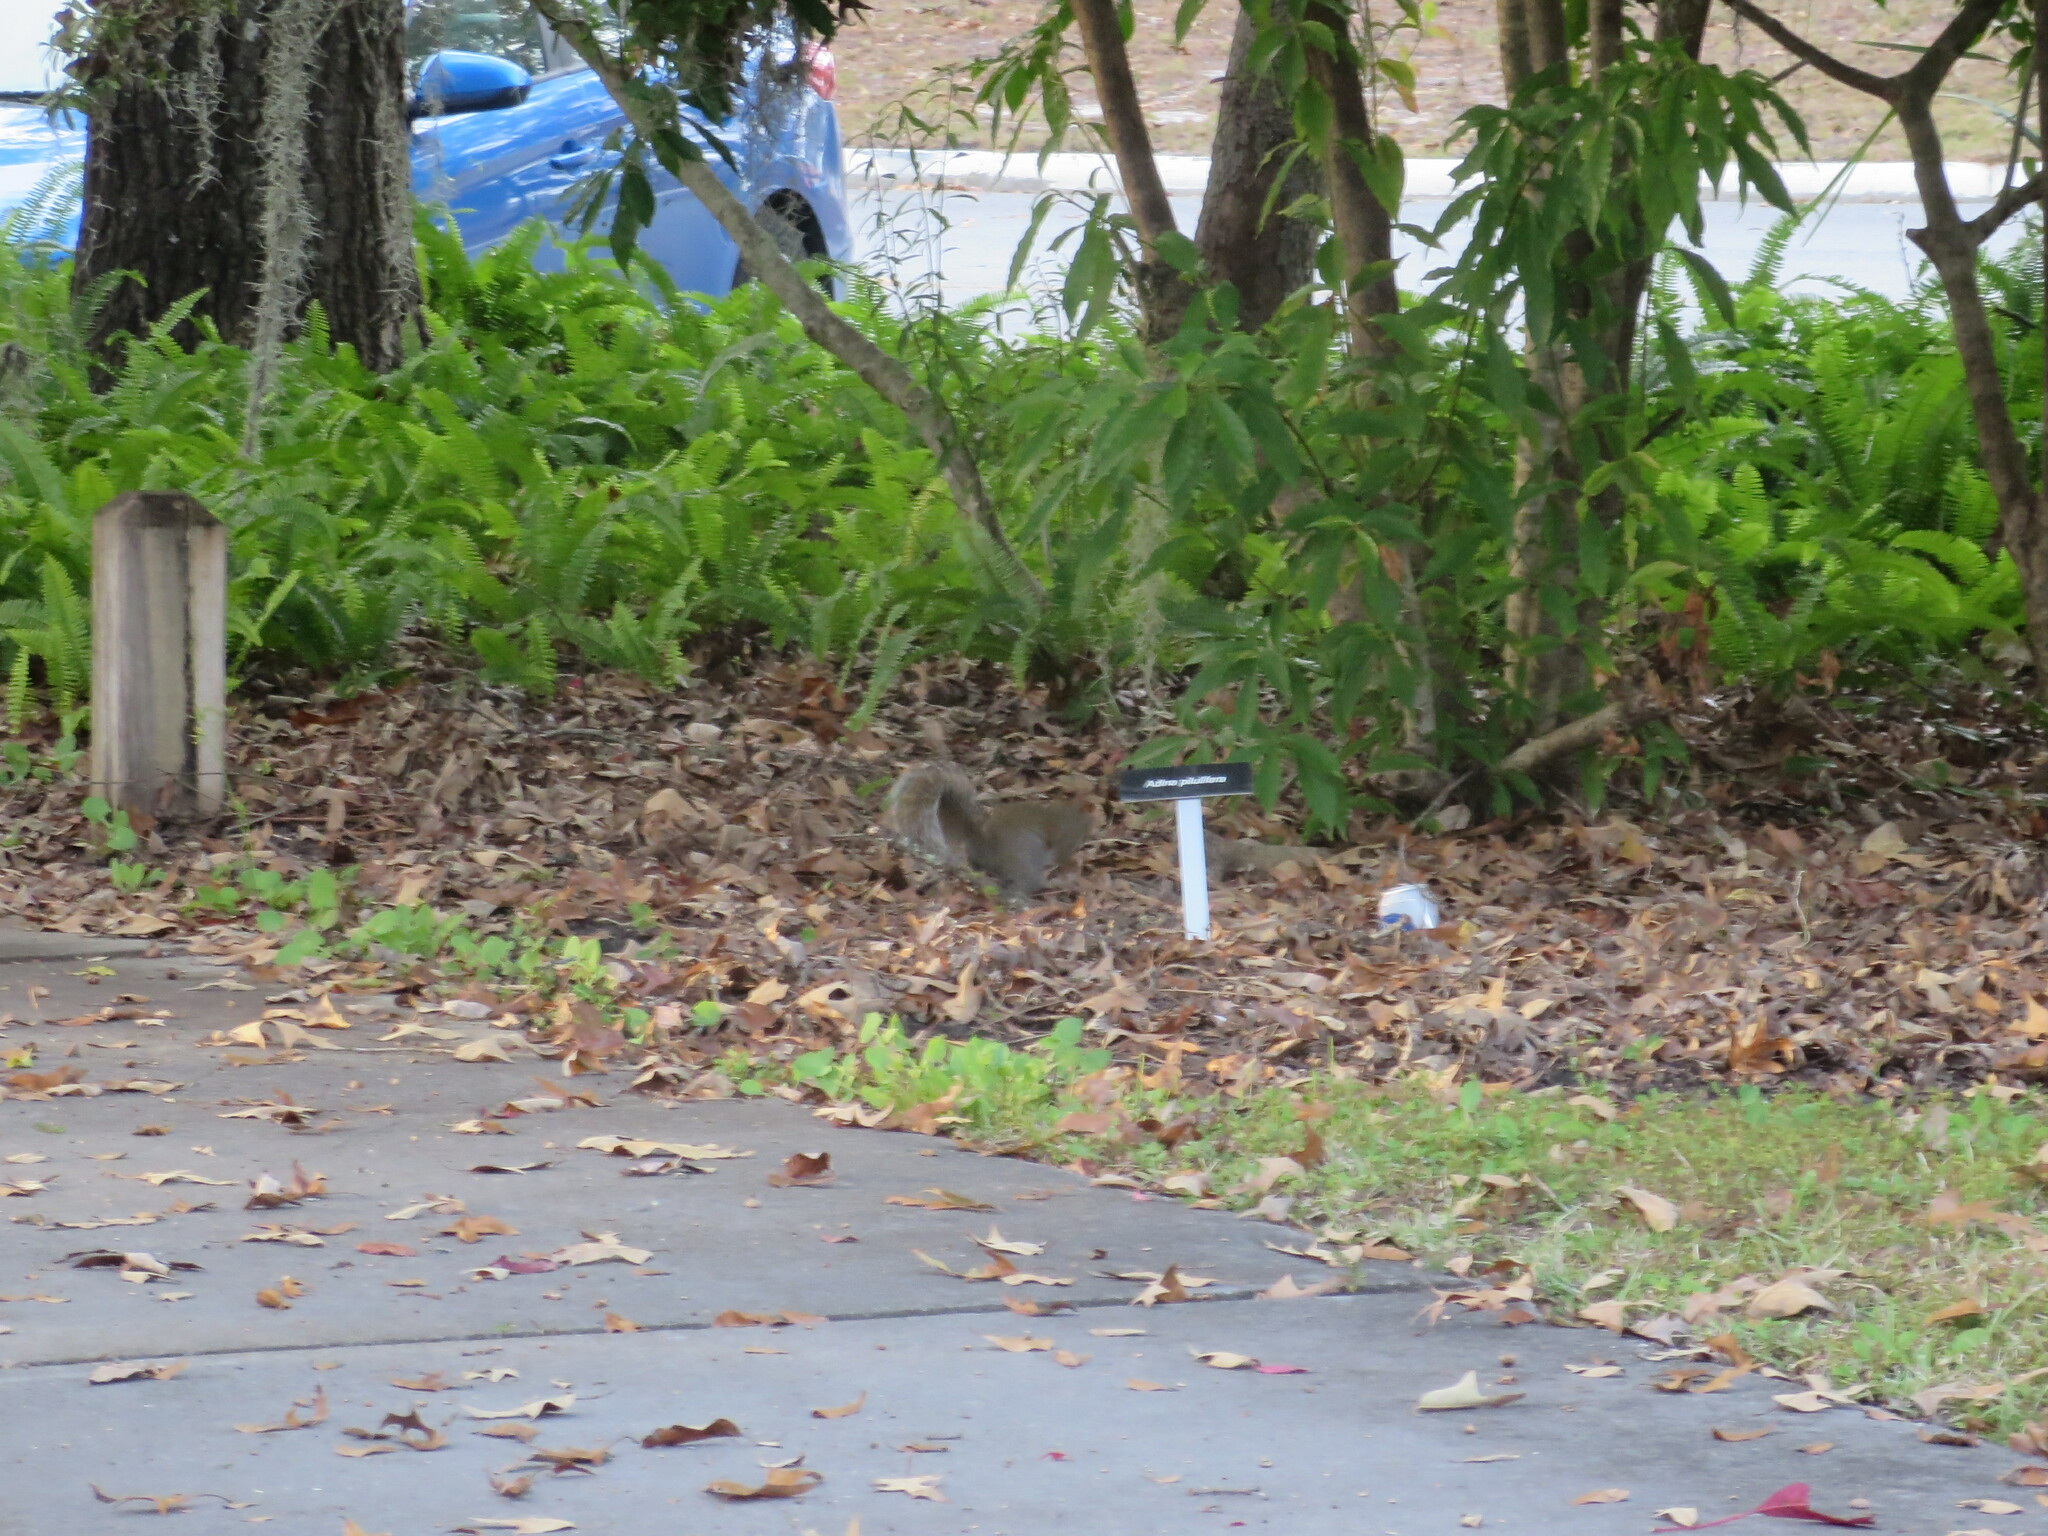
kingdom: Animalia
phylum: Chordata
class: Mammalia
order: Rodentia
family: Sciuridae
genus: Sciurus
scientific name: Sciurus carolinensis
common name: Eastern gray squirrel
